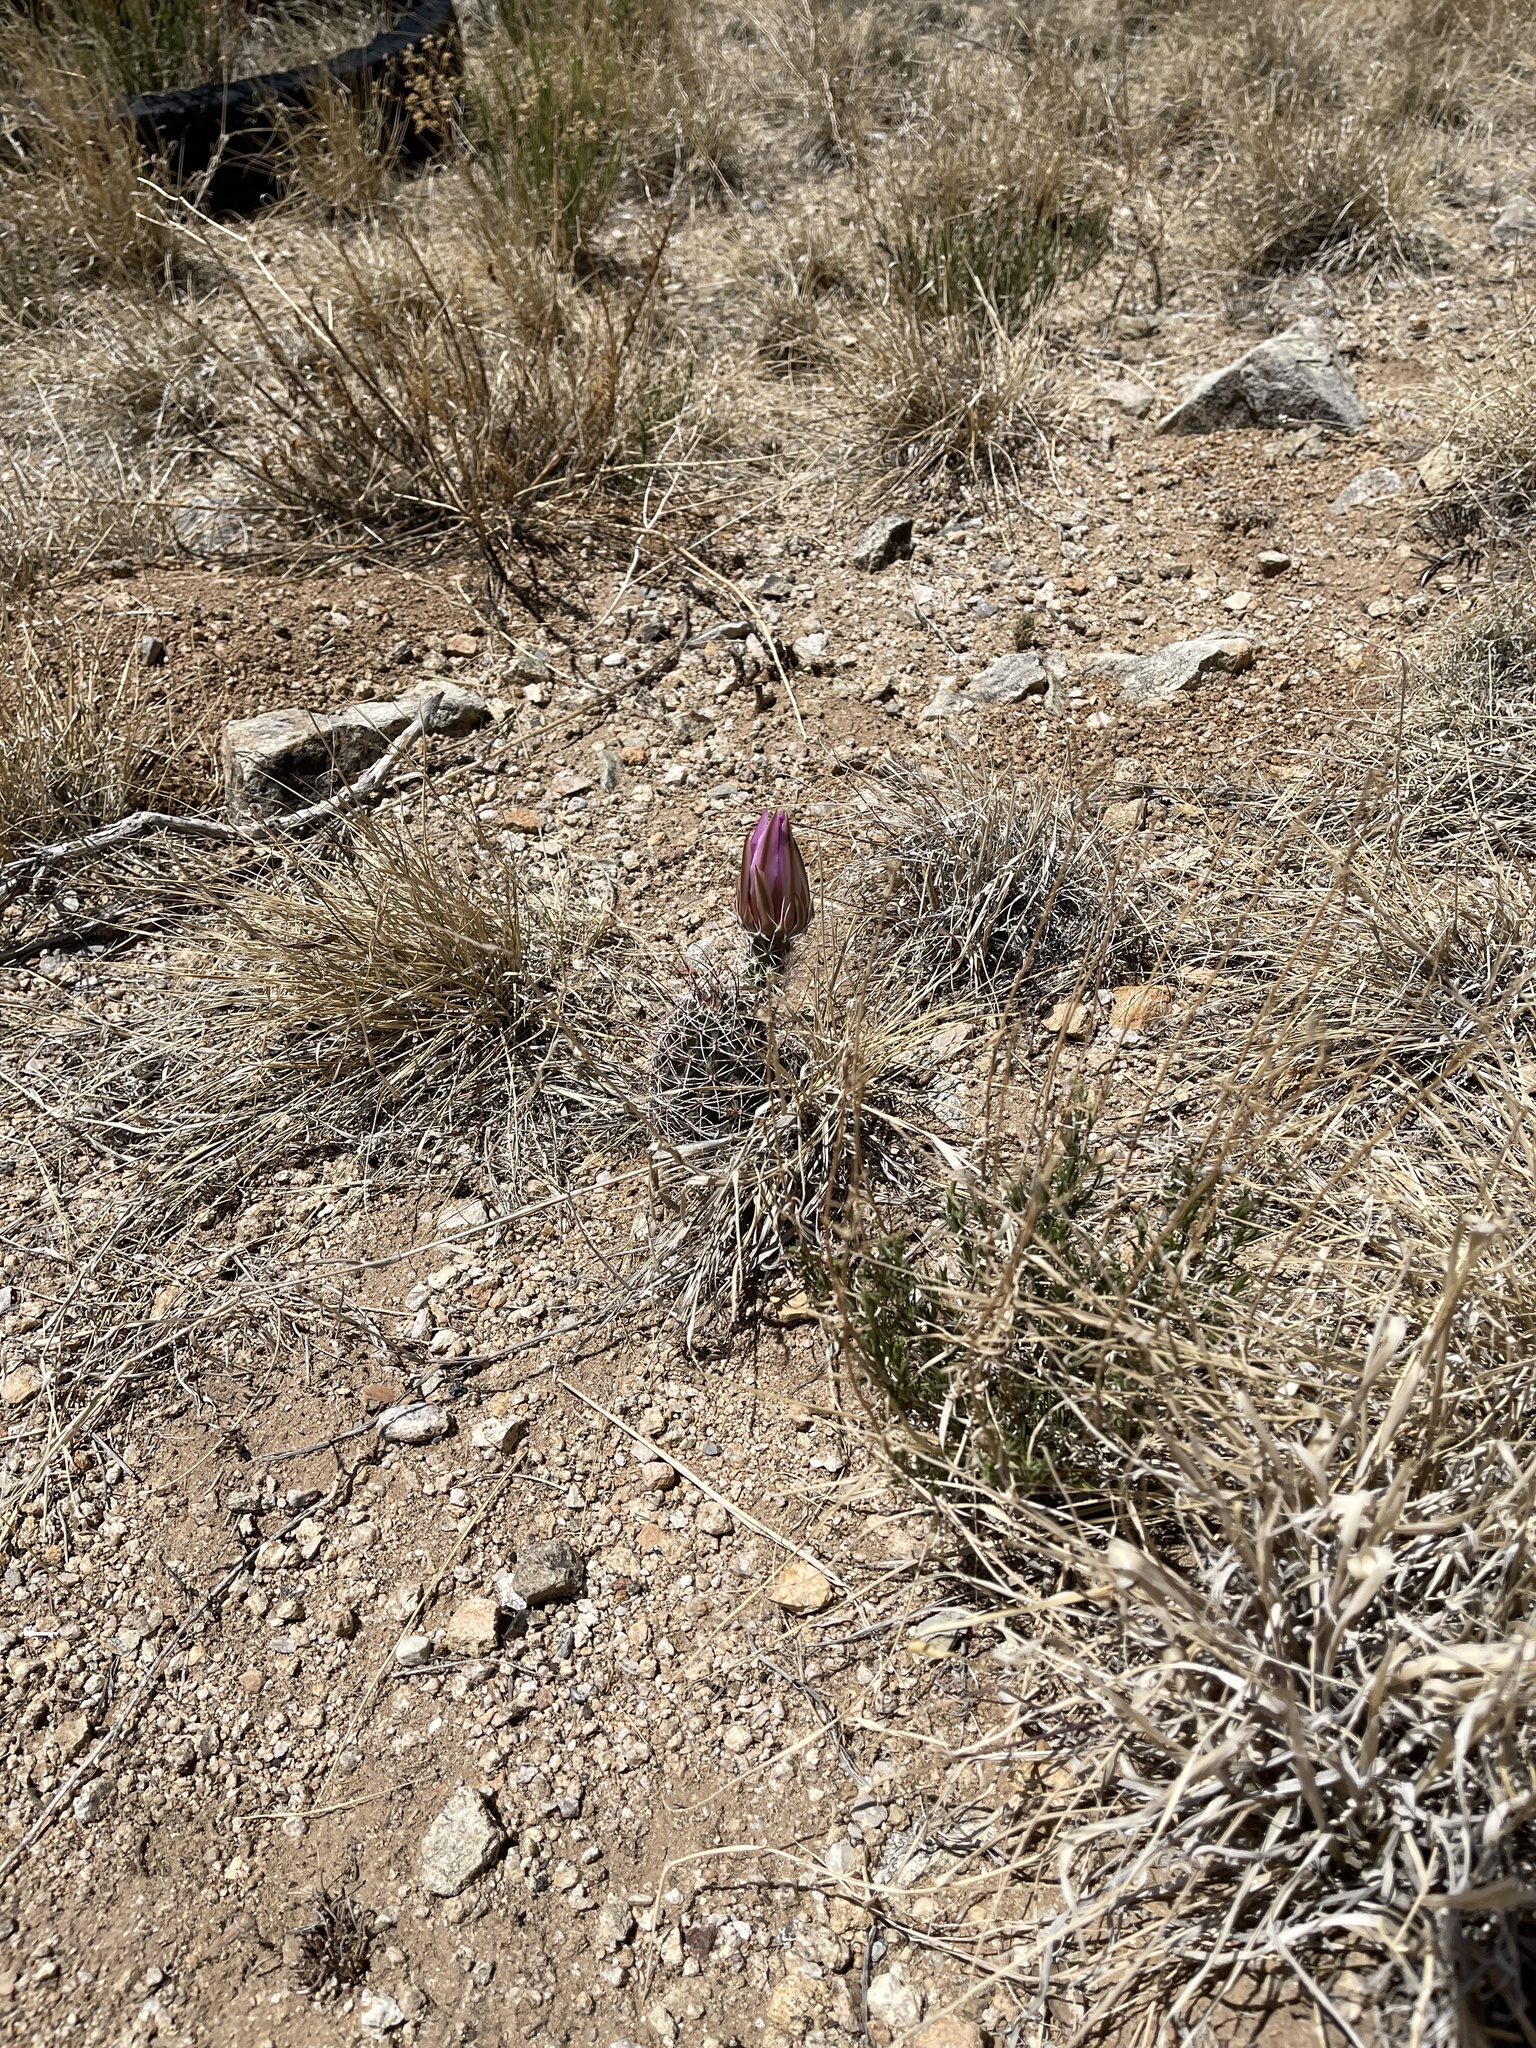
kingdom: Plantae
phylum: Tracheophyta
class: Magnoliopsida
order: Caryophyllales
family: Cactaceae
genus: Echinocereus
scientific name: Echinocereus fendleri
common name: Fendler's hedgehog cactus
